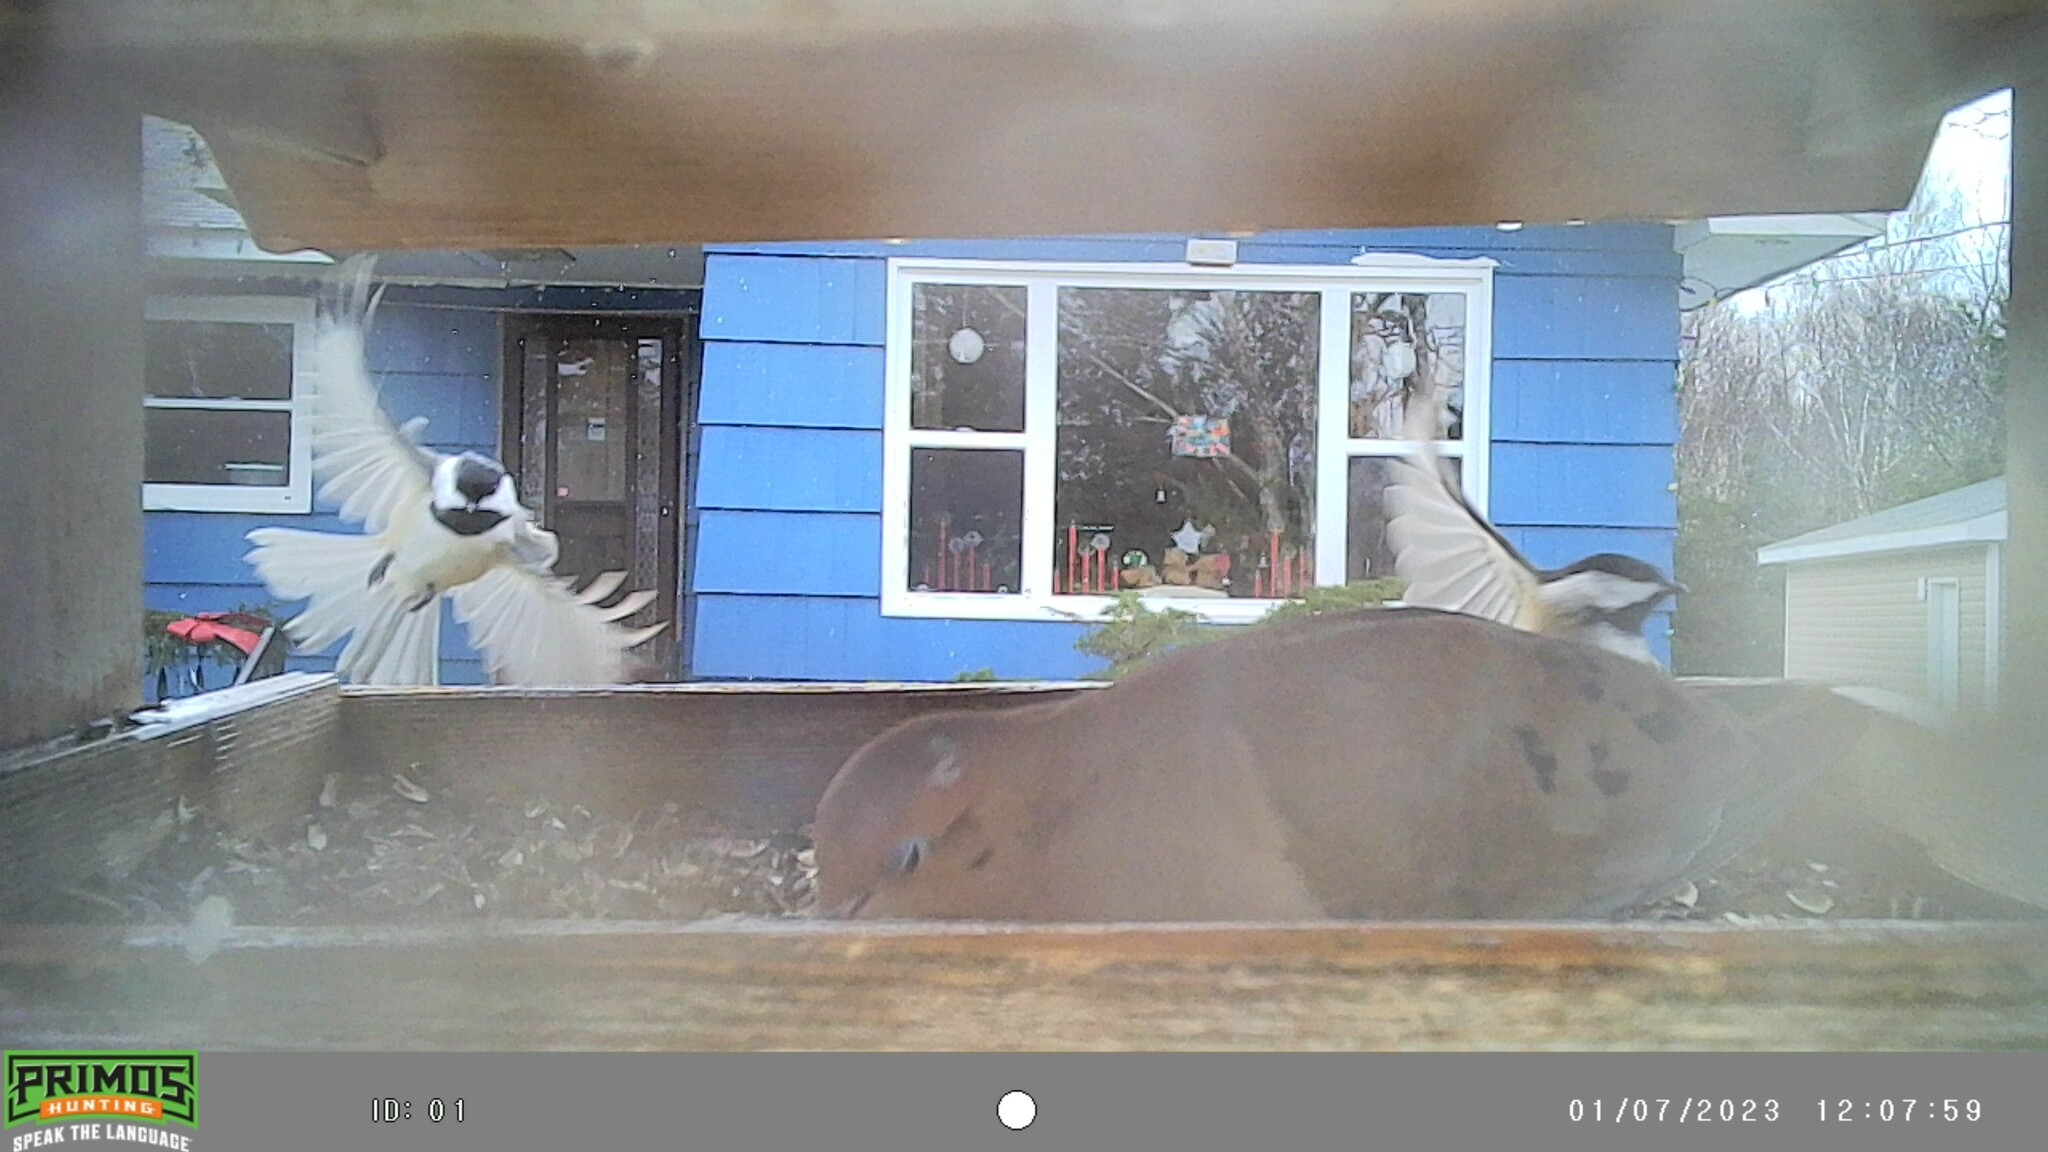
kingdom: Animalia
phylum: Chordata
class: Aves
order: Passeriformes
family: Paridae
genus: Poecile
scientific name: Poecile atricapillus
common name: Black-capped chickadee
